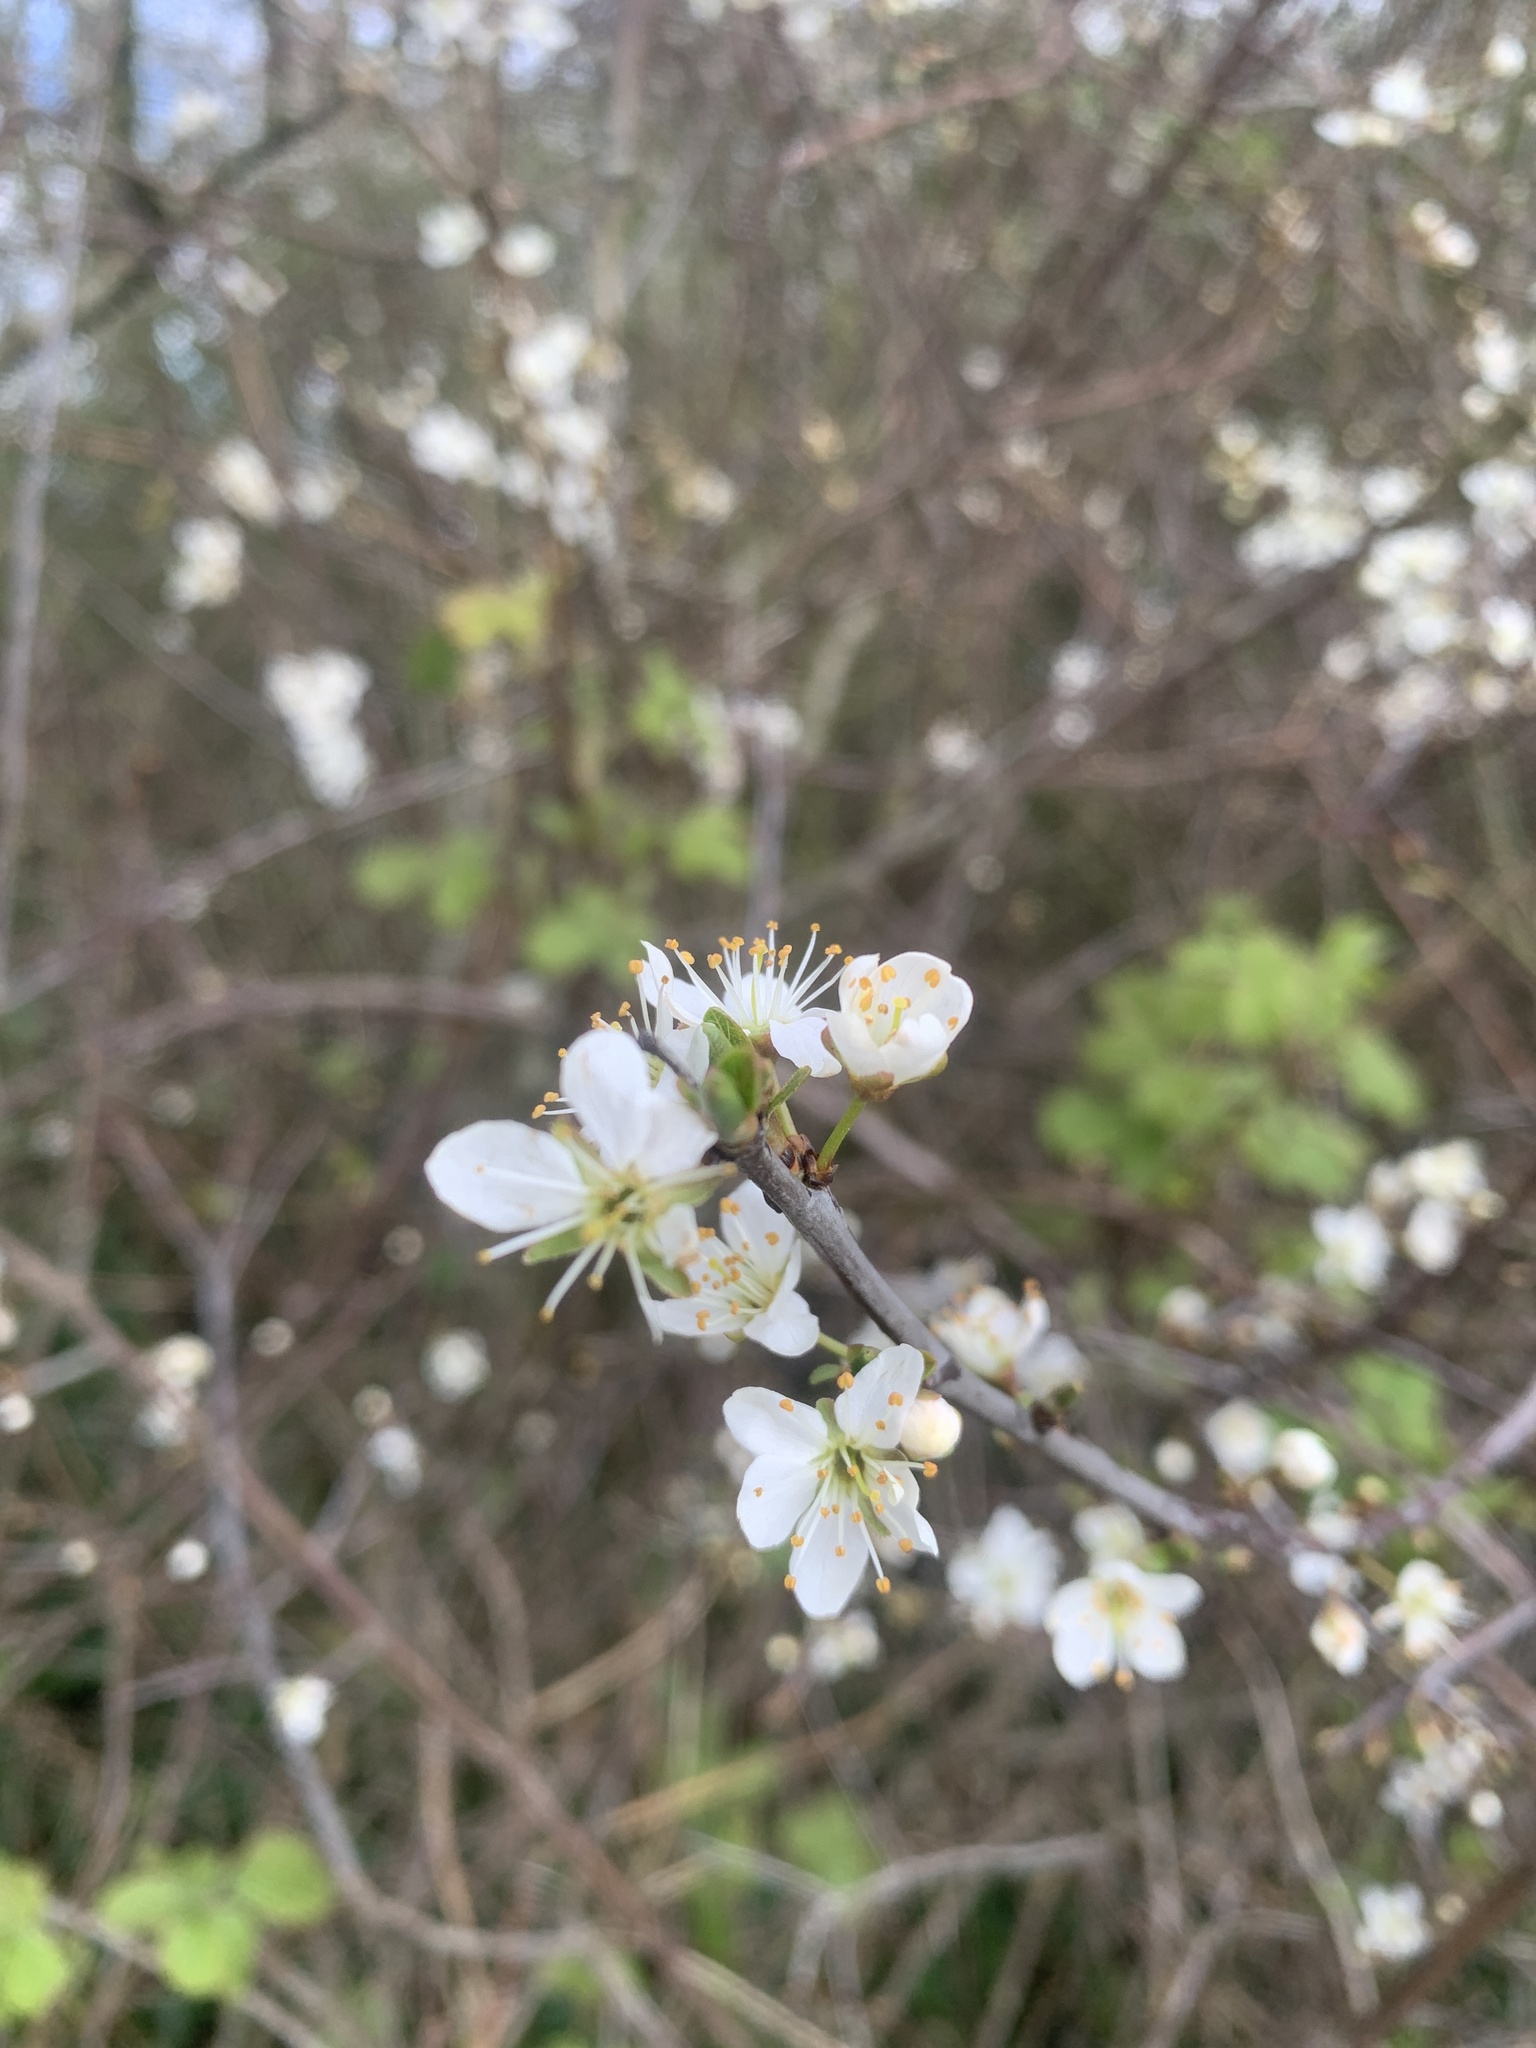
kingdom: Plantae
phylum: Tracheophyta
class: Magnoliopsida
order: Rosales
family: Rosaceae
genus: Prunus
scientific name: Prunus spinosa
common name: Blackthorn
